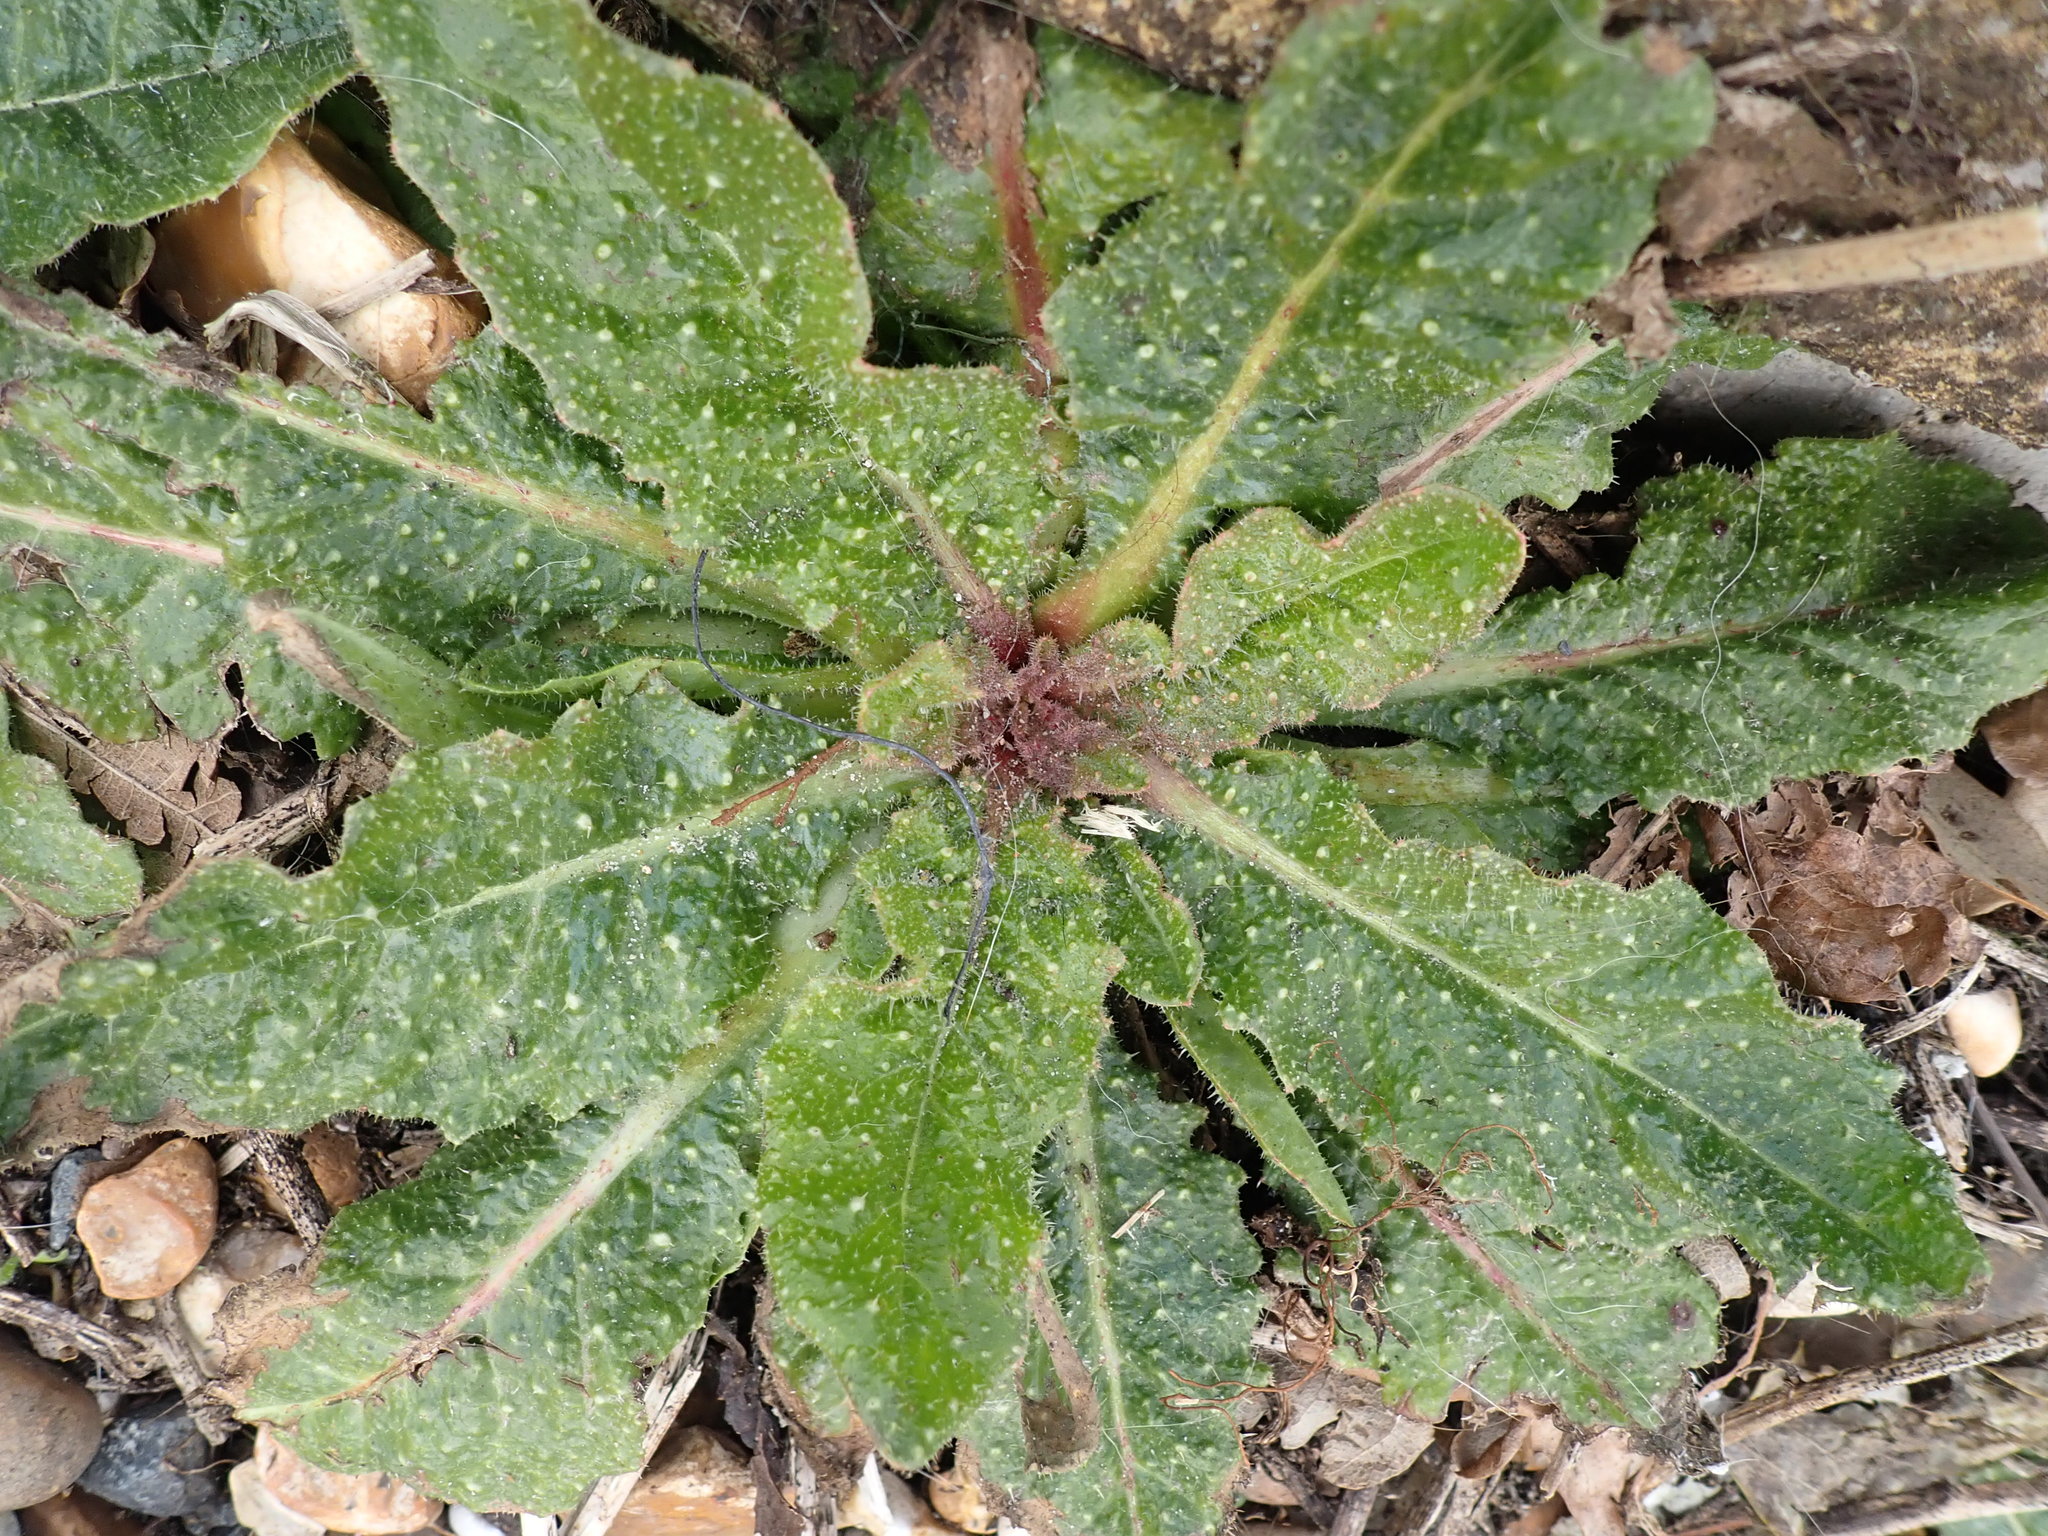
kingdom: Plantae
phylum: Tracheophyta
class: Magnoliopsida
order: Asterales
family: Asteraceae
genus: Helminthotheca
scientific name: Helminthotheca echioides
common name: Ox-tongue
